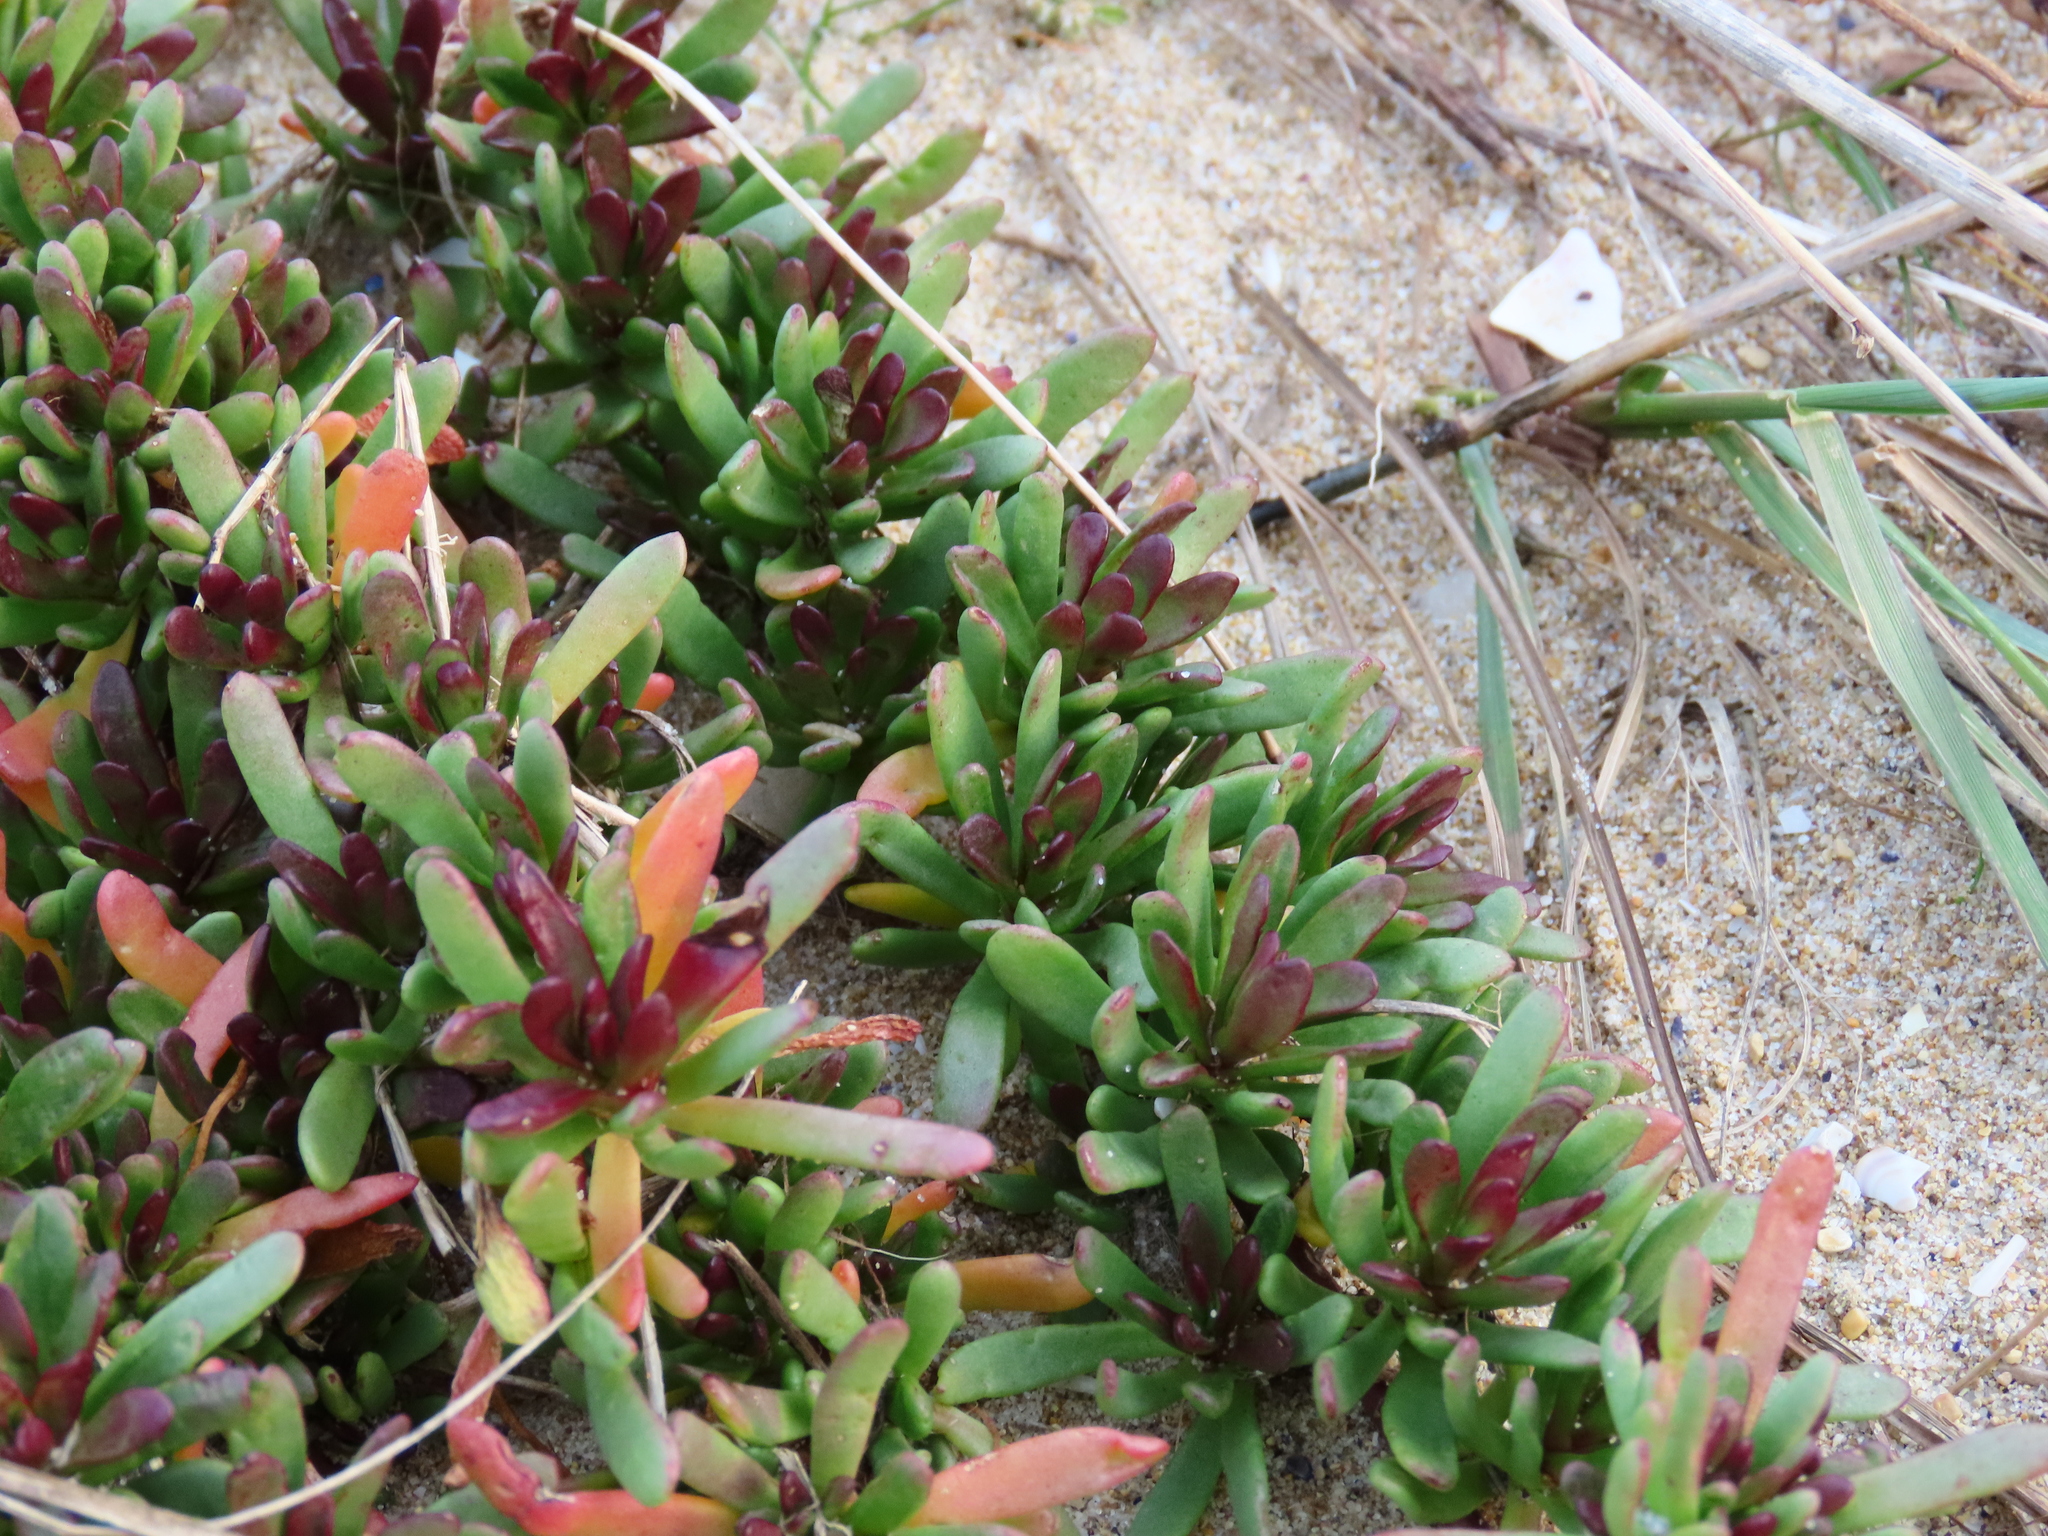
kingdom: Plantae
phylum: Tracheophyta
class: Magnoliopsida
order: Asterales
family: Asteraceae
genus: Limbarda
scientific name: Limbarda crithmoides
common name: Golden samphire
